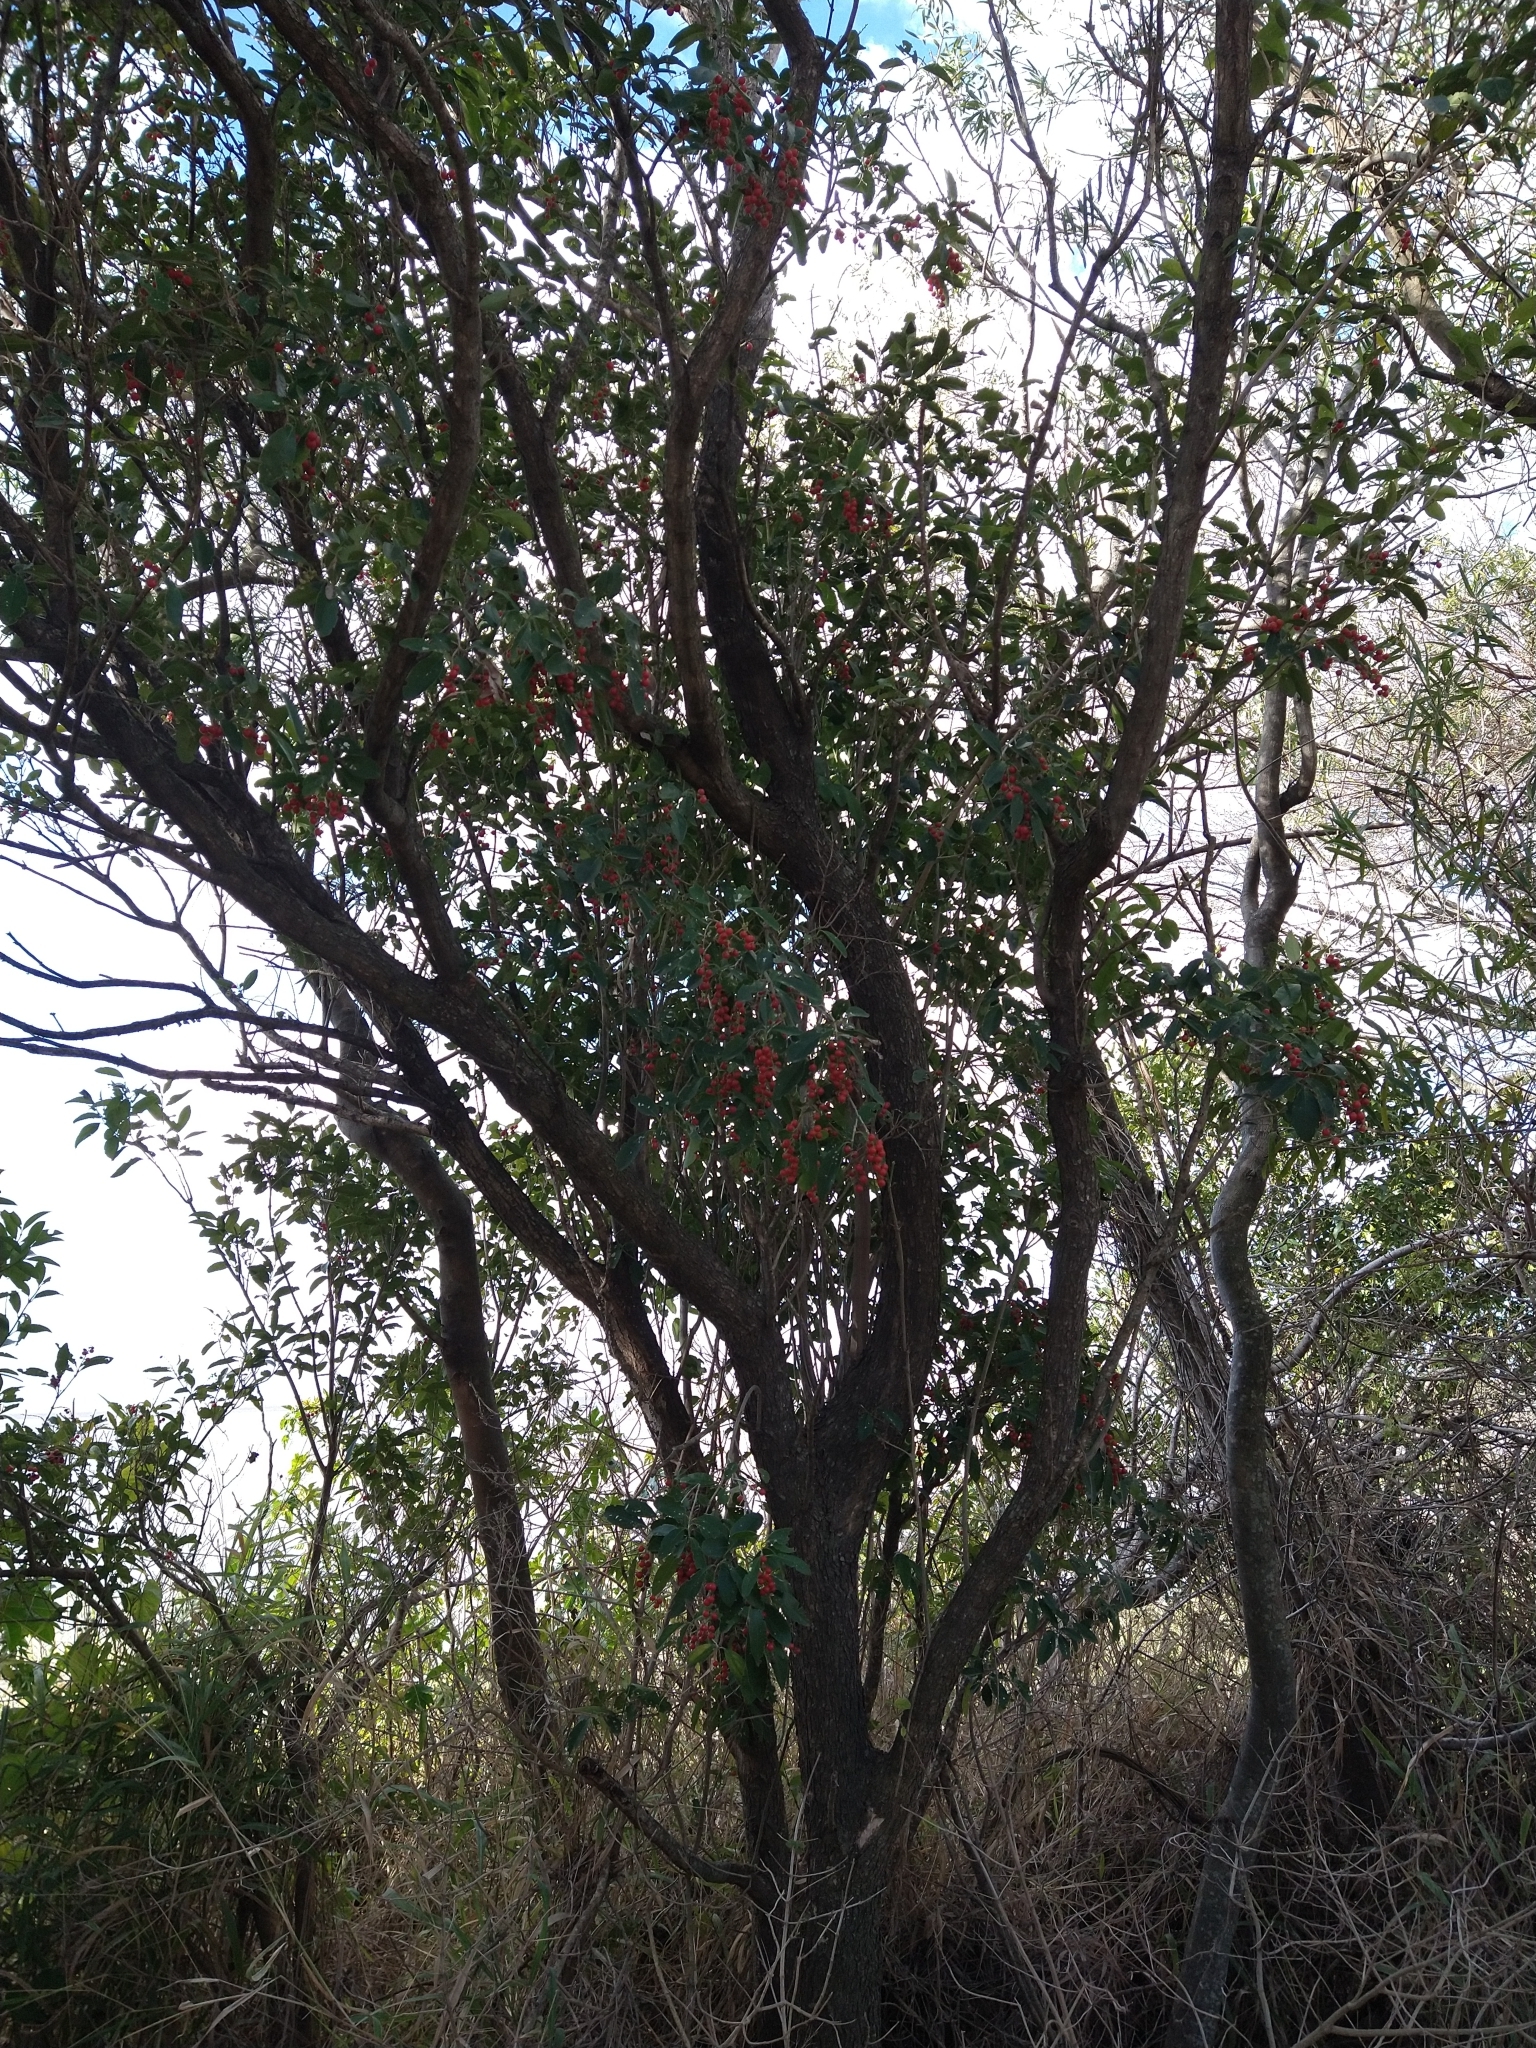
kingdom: Plantae
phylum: Tracheophyta
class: Magnoliopsida
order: Lamiales
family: Verbenaceae
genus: Citharexylum
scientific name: Citharexylum montevidense
